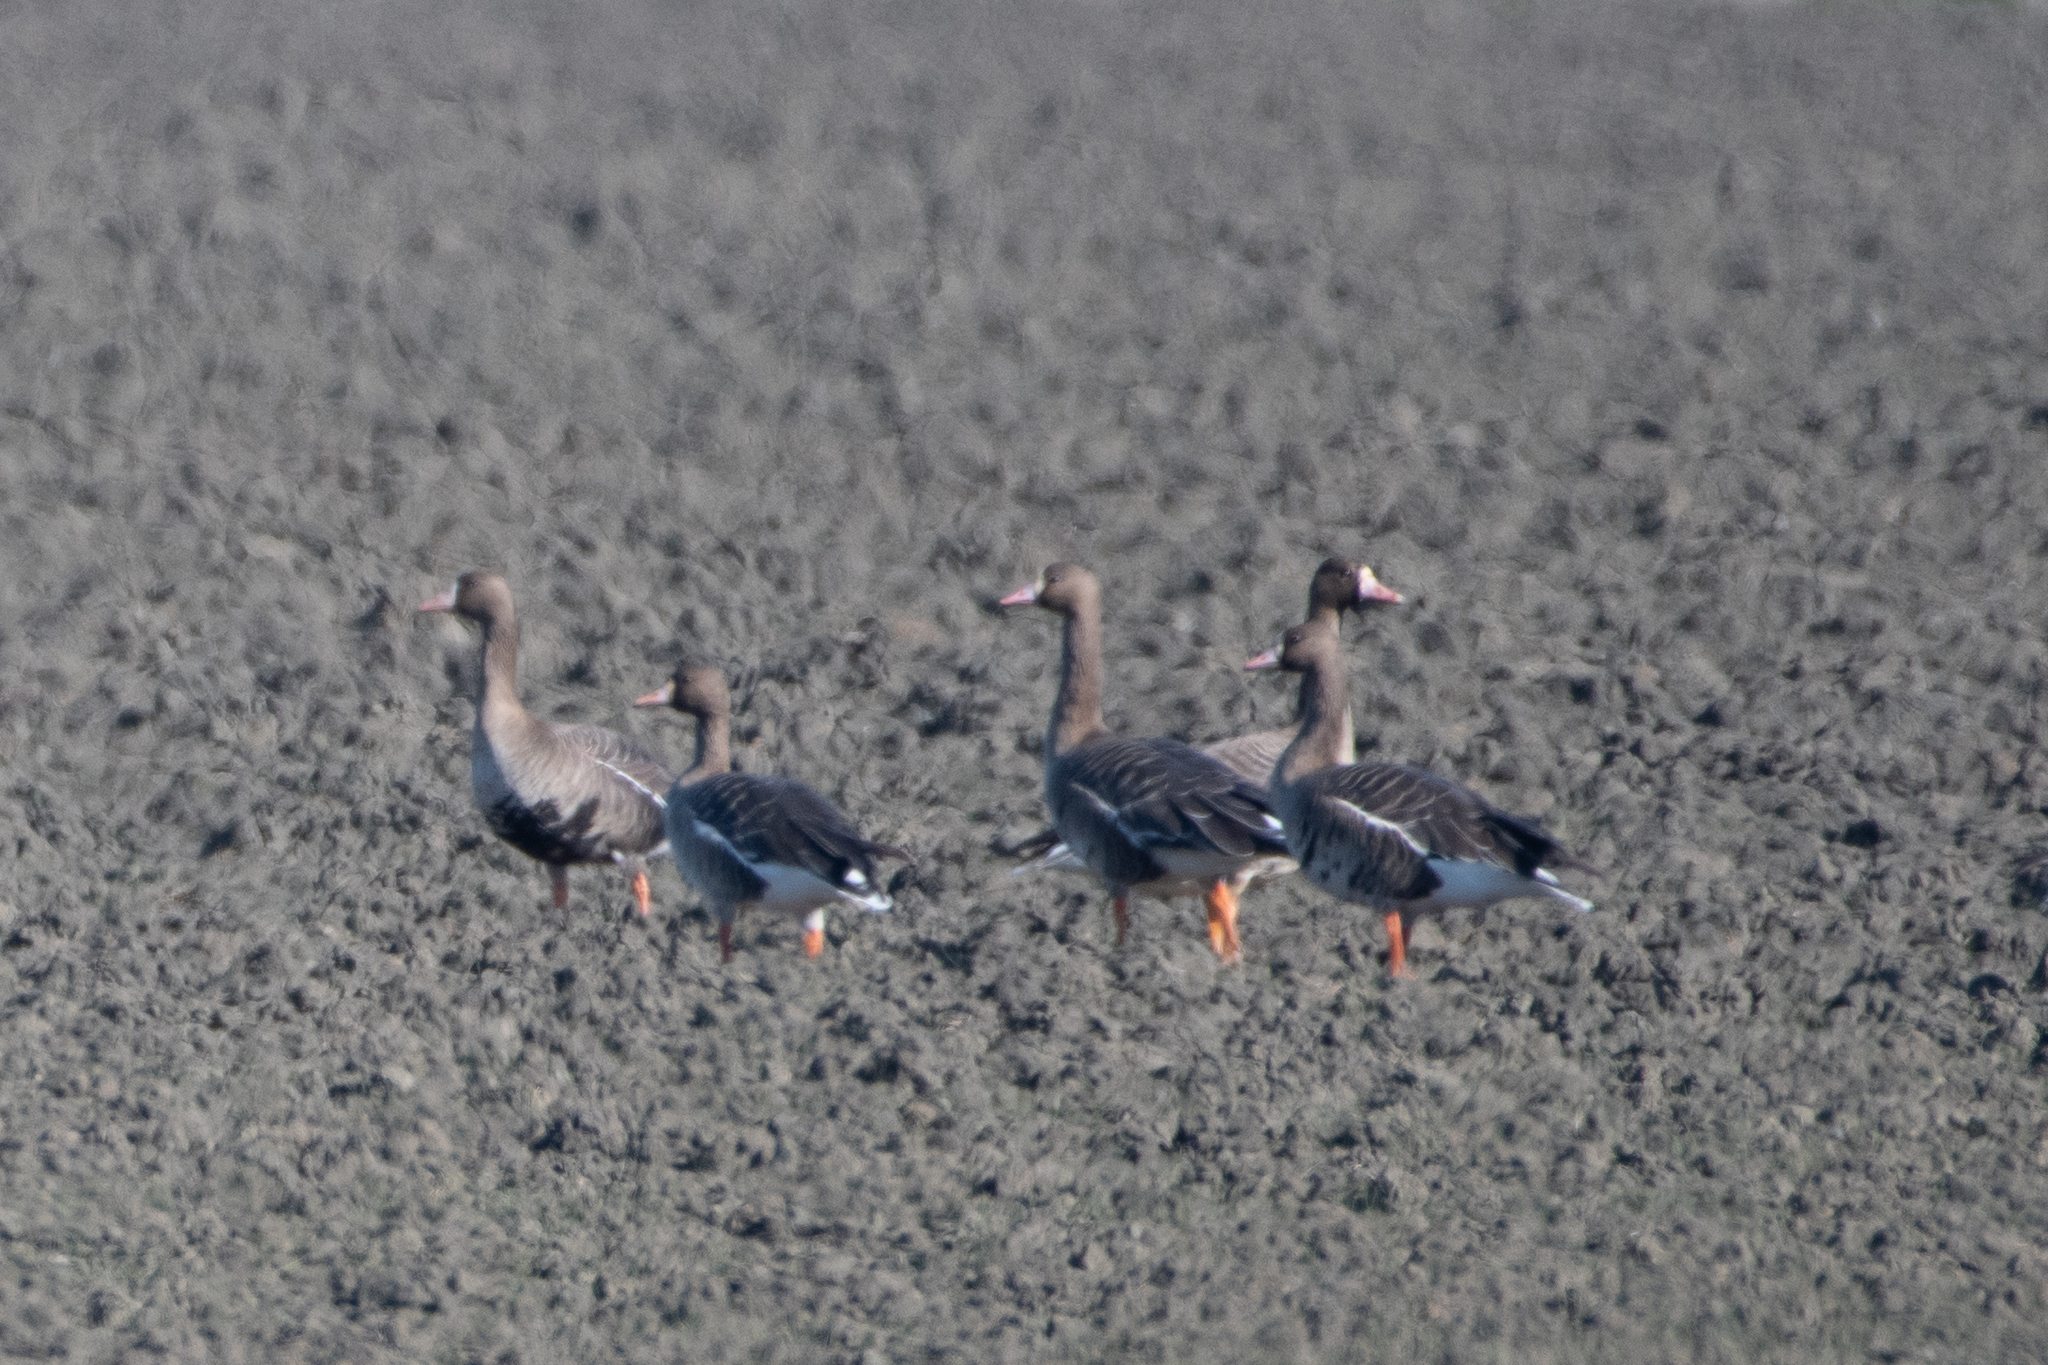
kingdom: Animalia
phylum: Chordata
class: Aves
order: Anseriformes
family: Anatidae
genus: Anser
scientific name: Anser albifrons
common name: Greater white-fronted goose
